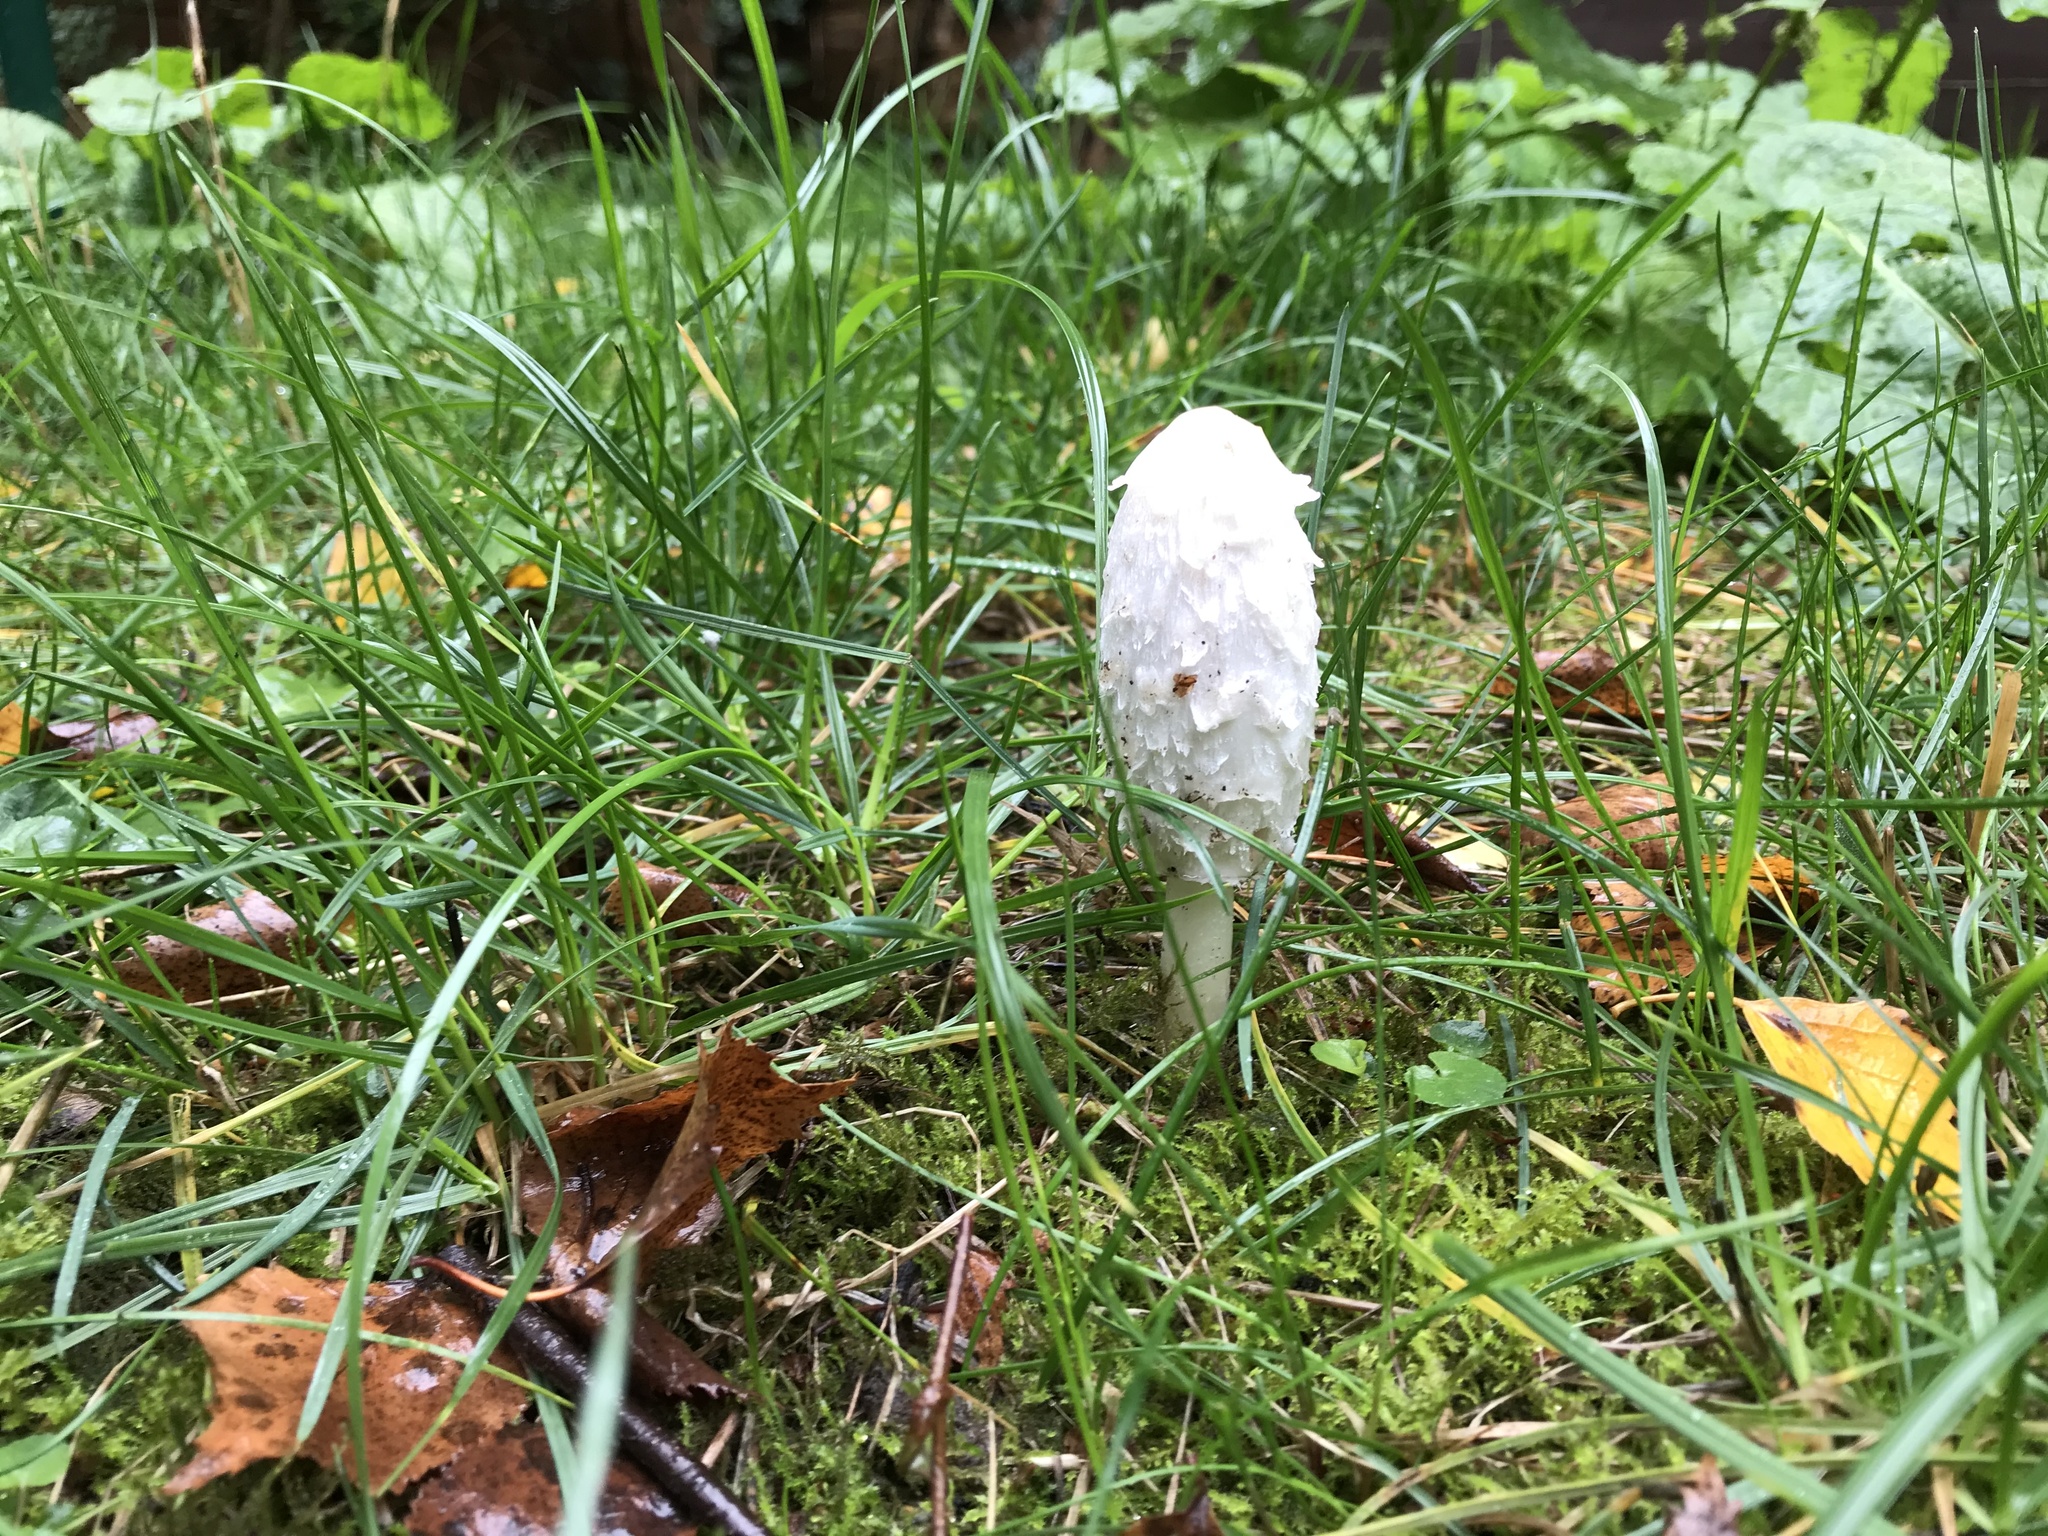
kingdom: Fungi
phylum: Basidiomycota
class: Agaricomycetes
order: Agaricales
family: Agaricaceae
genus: Coprinus
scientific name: Coprinus comatus
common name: Lawyer's wig
